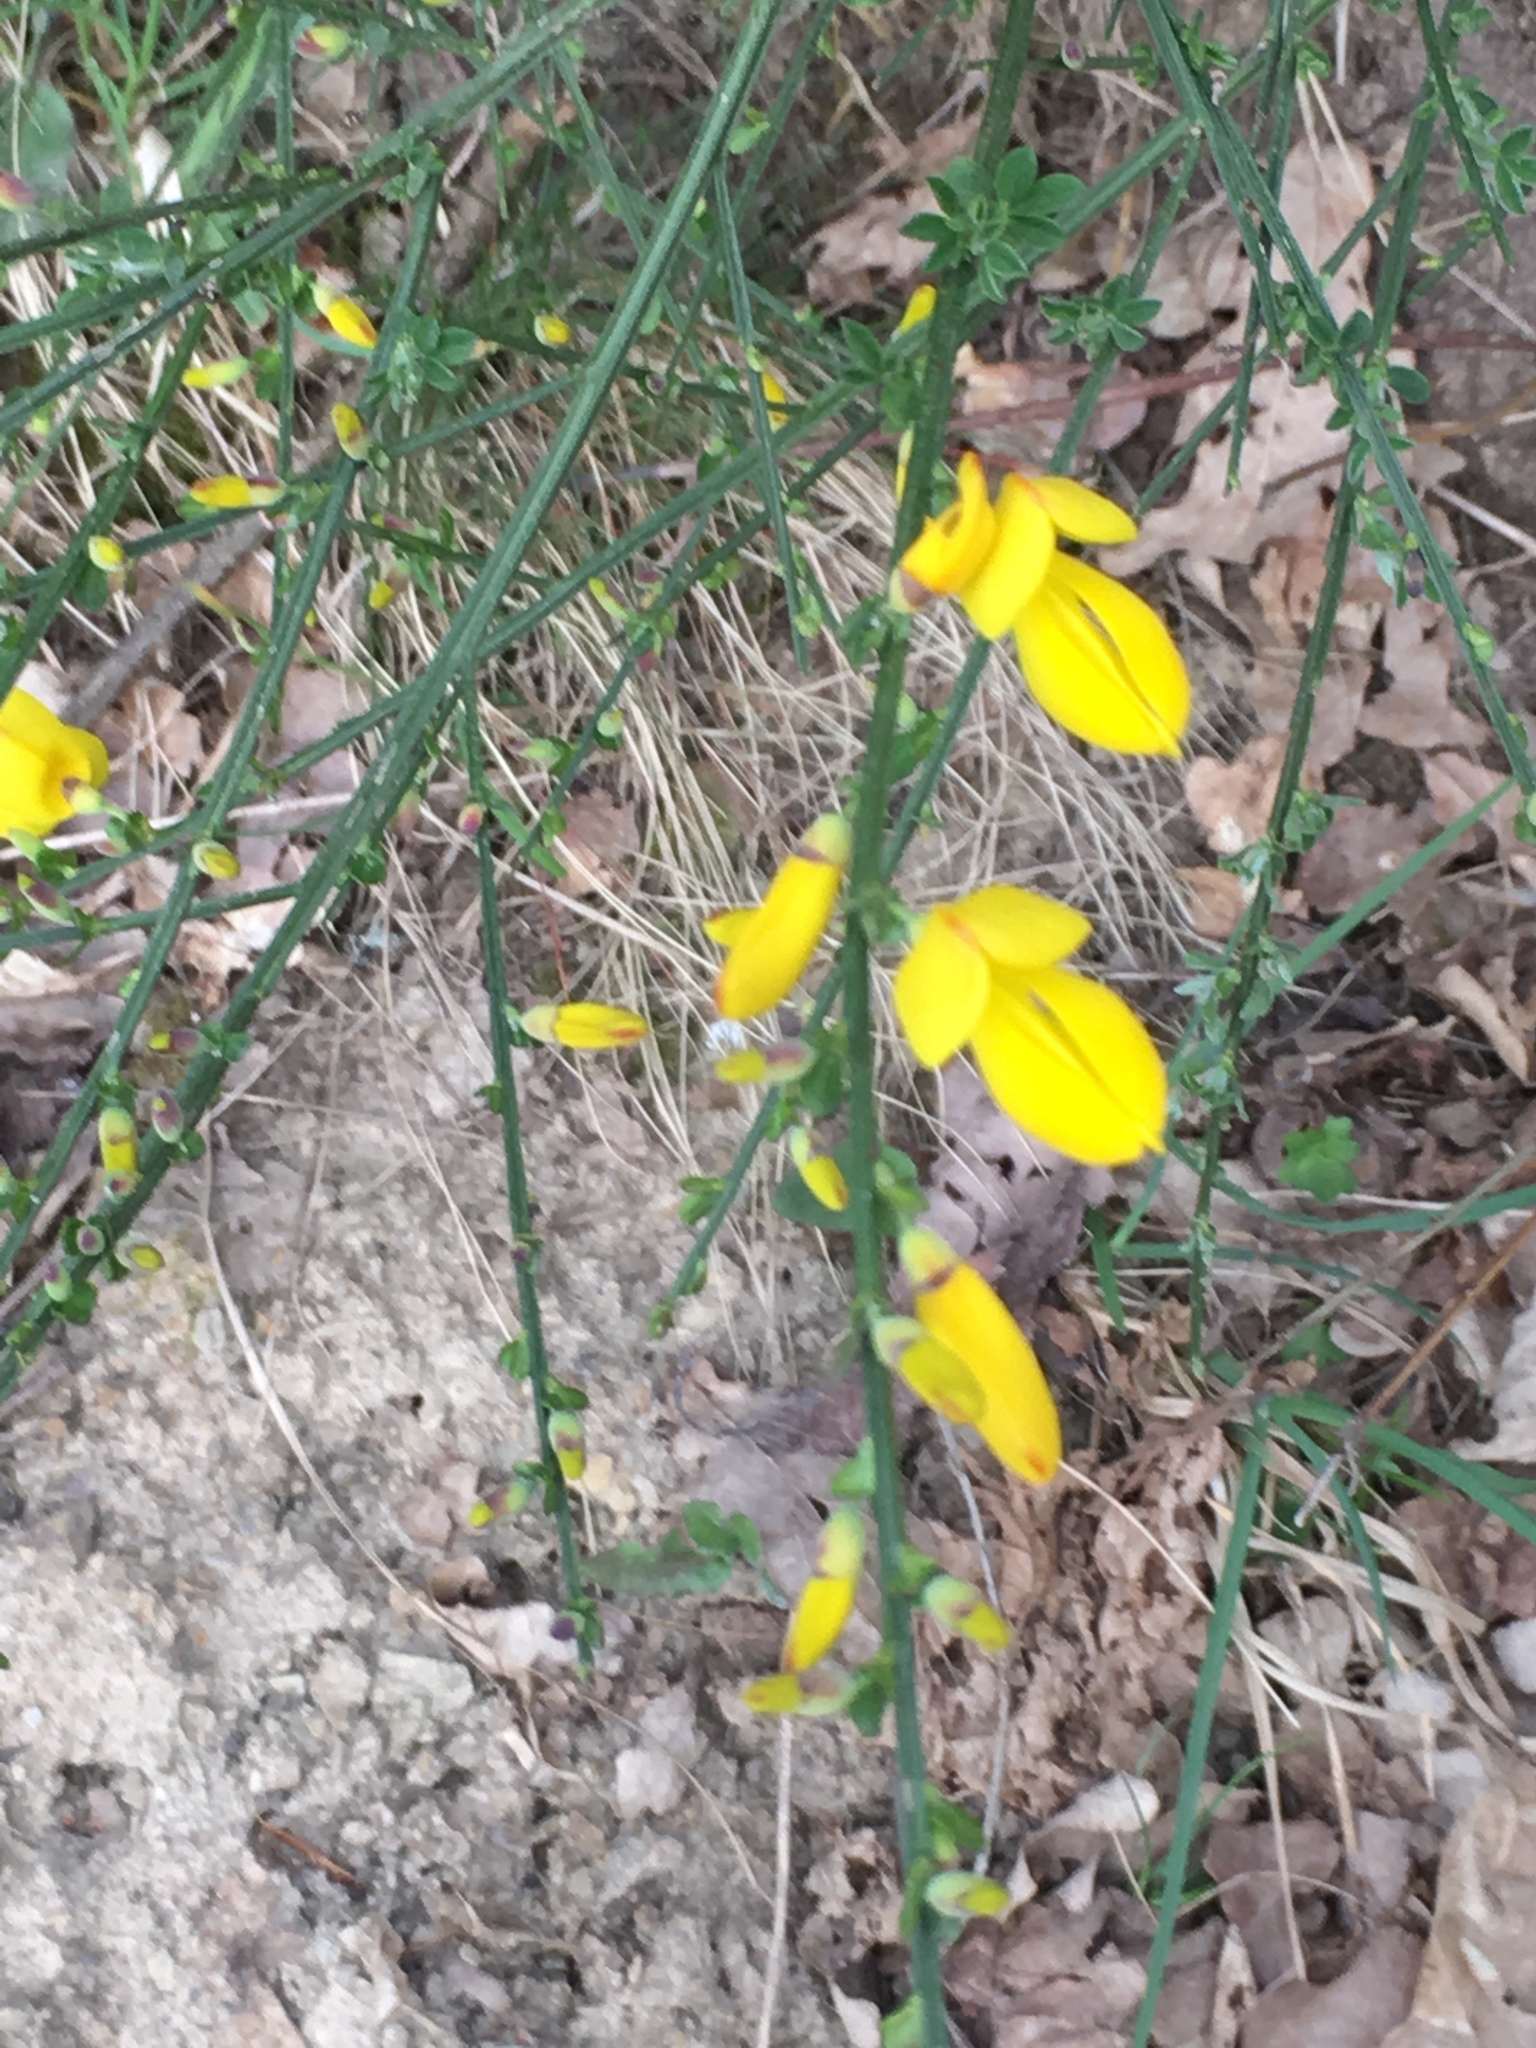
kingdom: Plantae
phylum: Tracheophyta
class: Magnoliopsida
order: Fabales
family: Fabaceae
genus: Cytisus
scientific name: Cytisus scoparius
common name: Scotch broom
